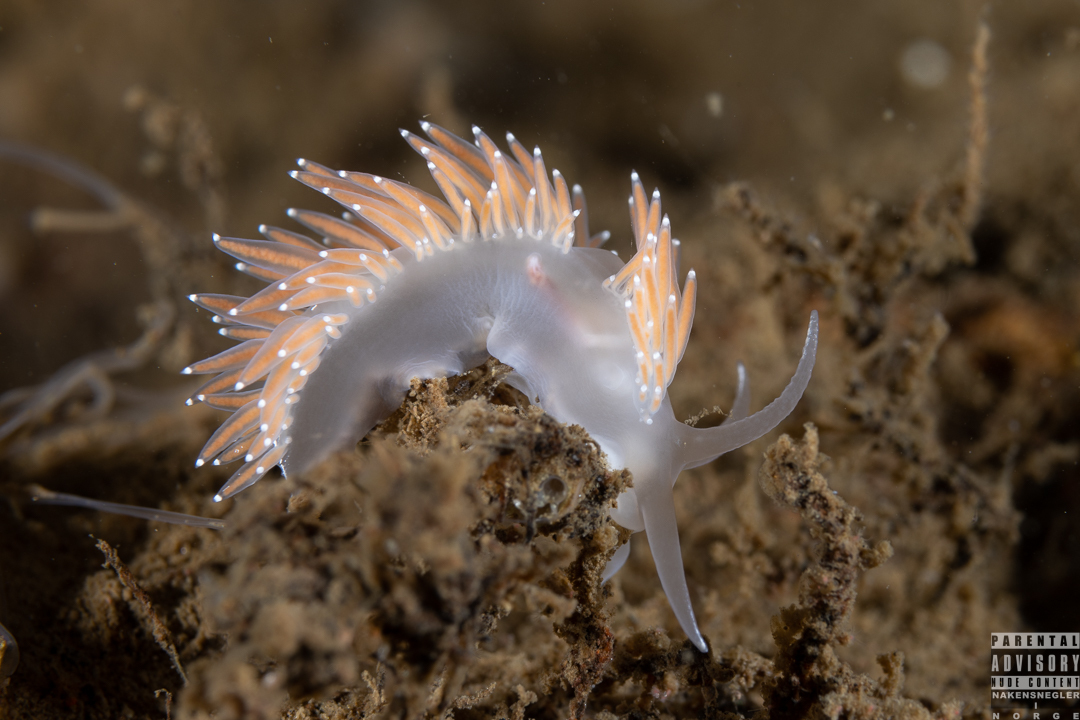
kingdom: Animalia
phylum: Mollusca
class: Gastropoda
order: Nudibranchia
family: Coryphellidae
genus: Coryphella
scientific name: Coryphella verrucosa
